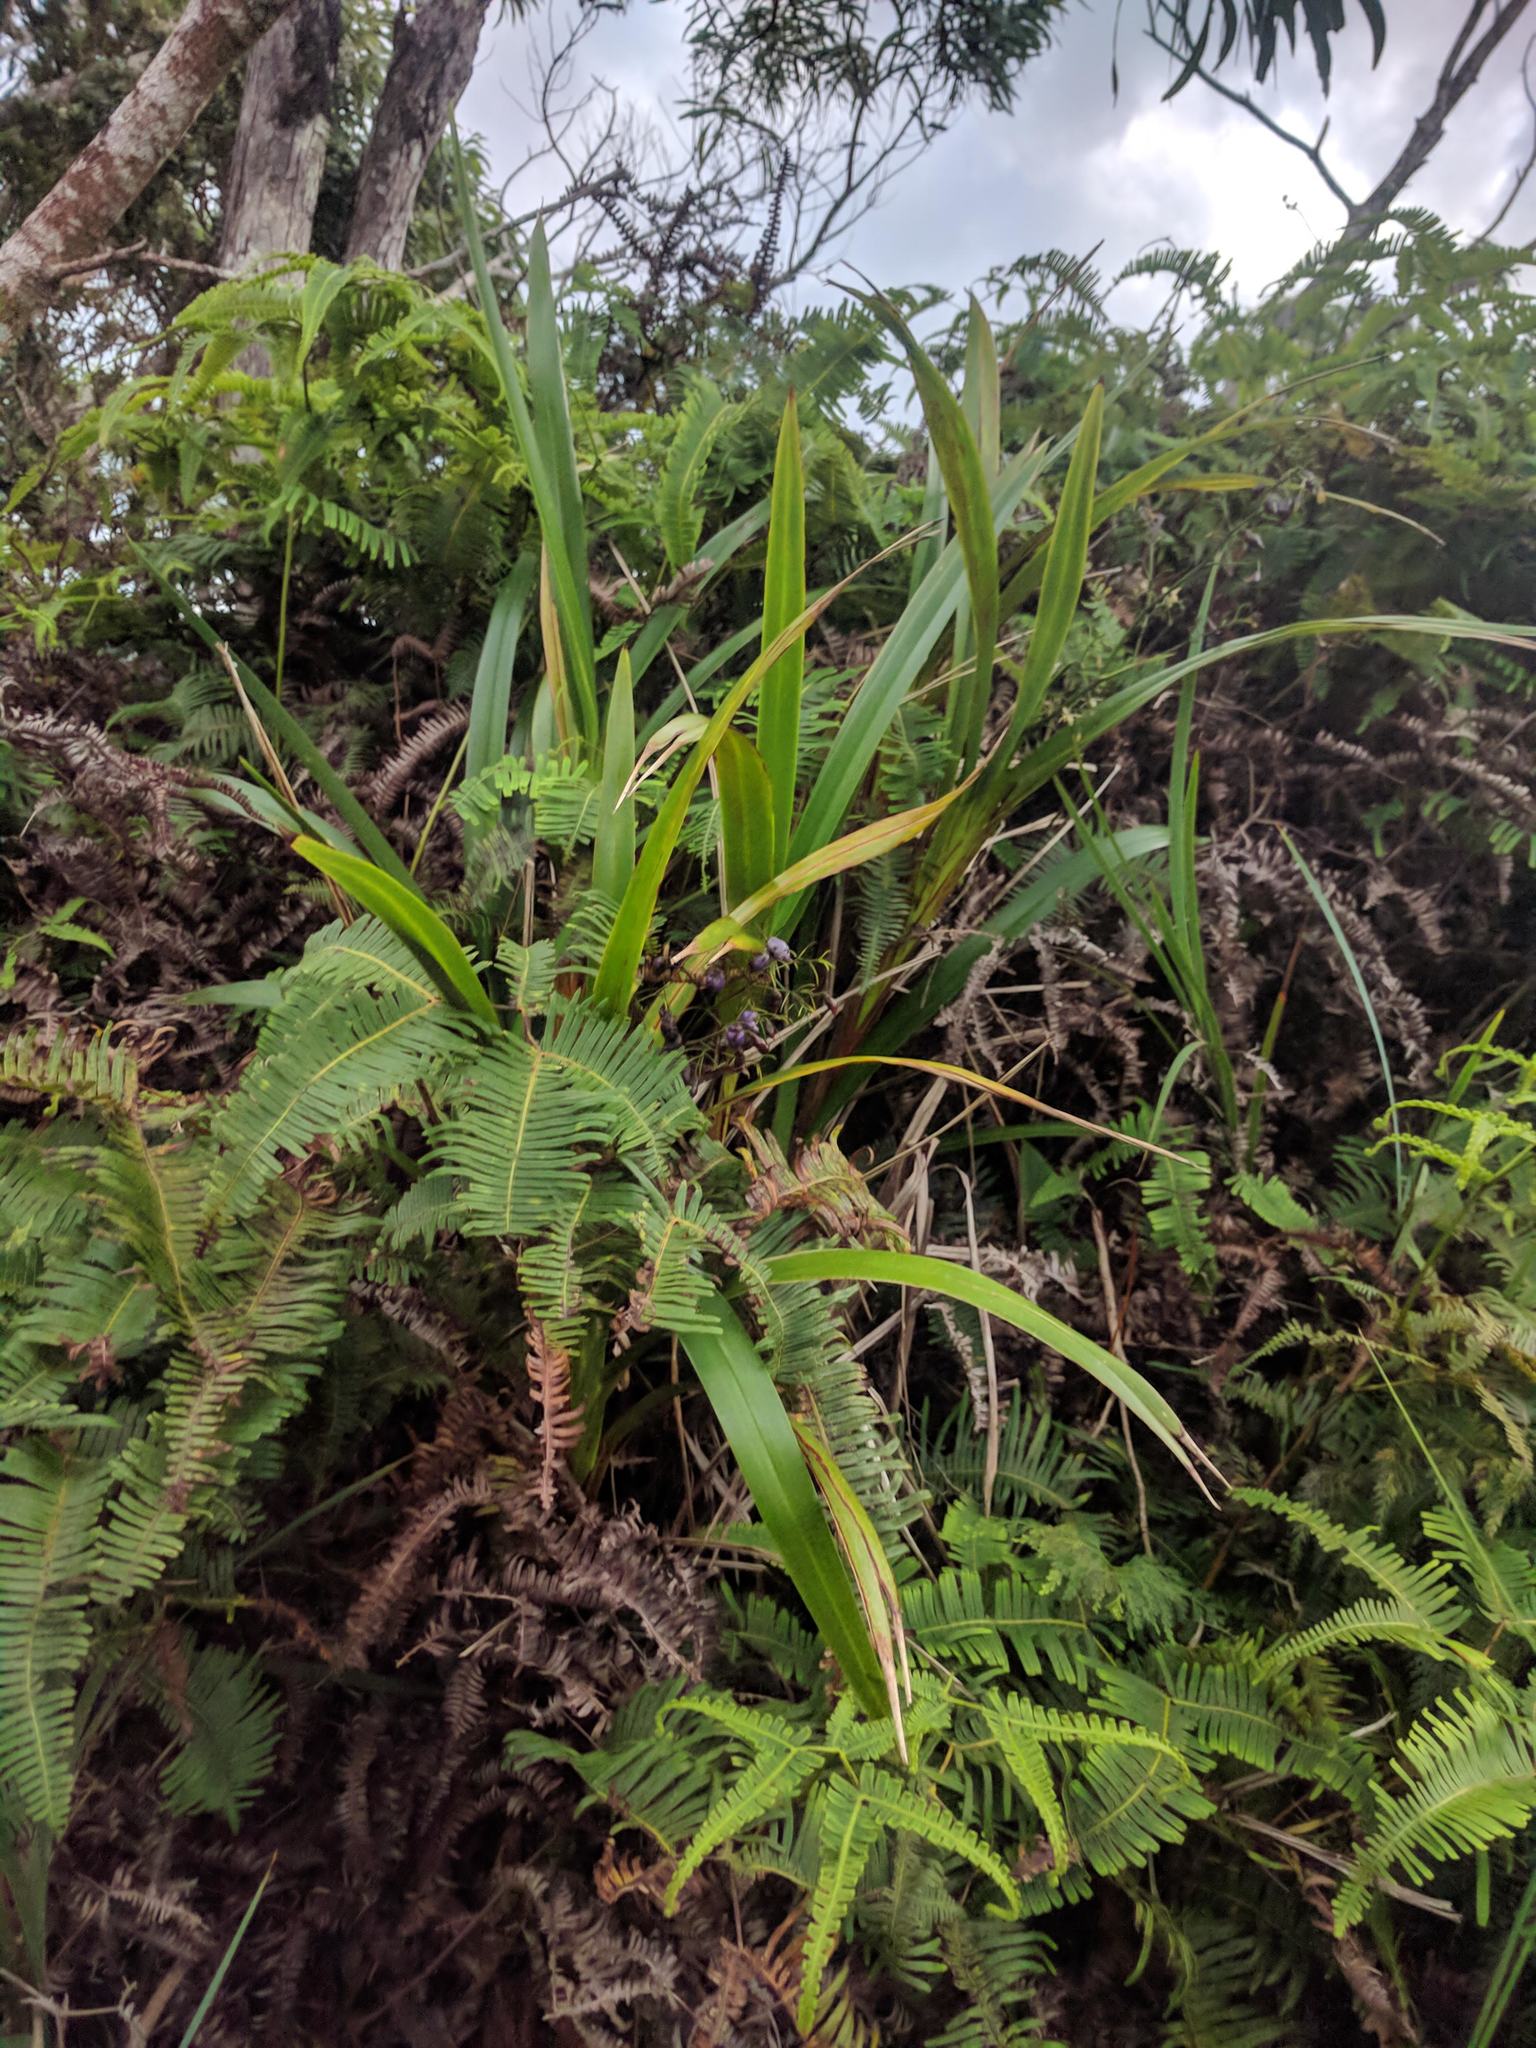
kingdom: Plantae
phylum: Tracheophyta
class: Liliopsida
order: Asparagales
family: Asphodelaceae
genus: Dianella
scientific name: Dianella sandwicensis
